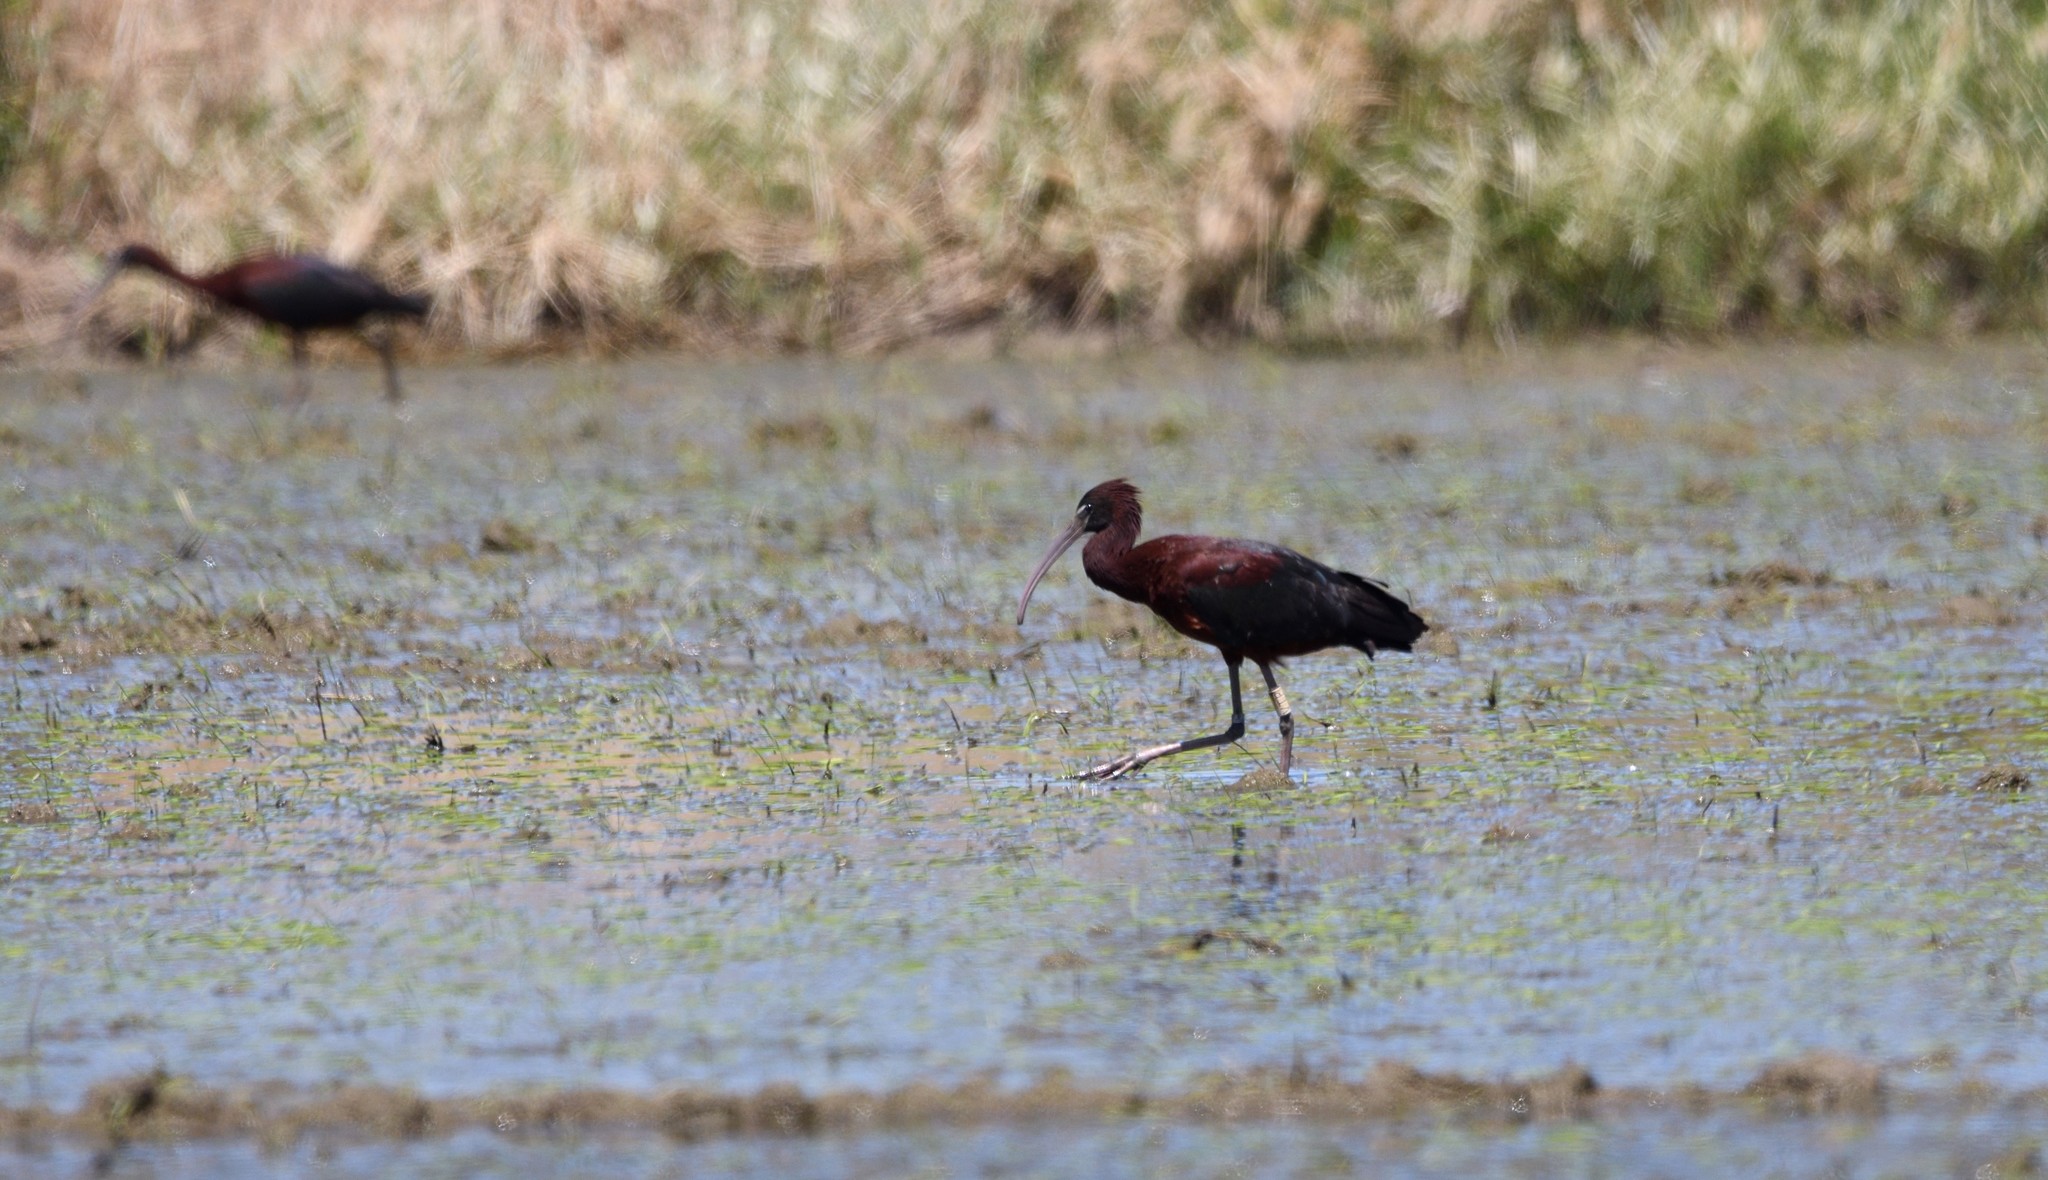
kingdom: Animalia
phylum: Chordata
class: Aves
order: Pelecaniformes
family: Threskiornithidae
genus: Plegadis
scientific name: Plegadis falcinellus
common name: Glossy ibis
